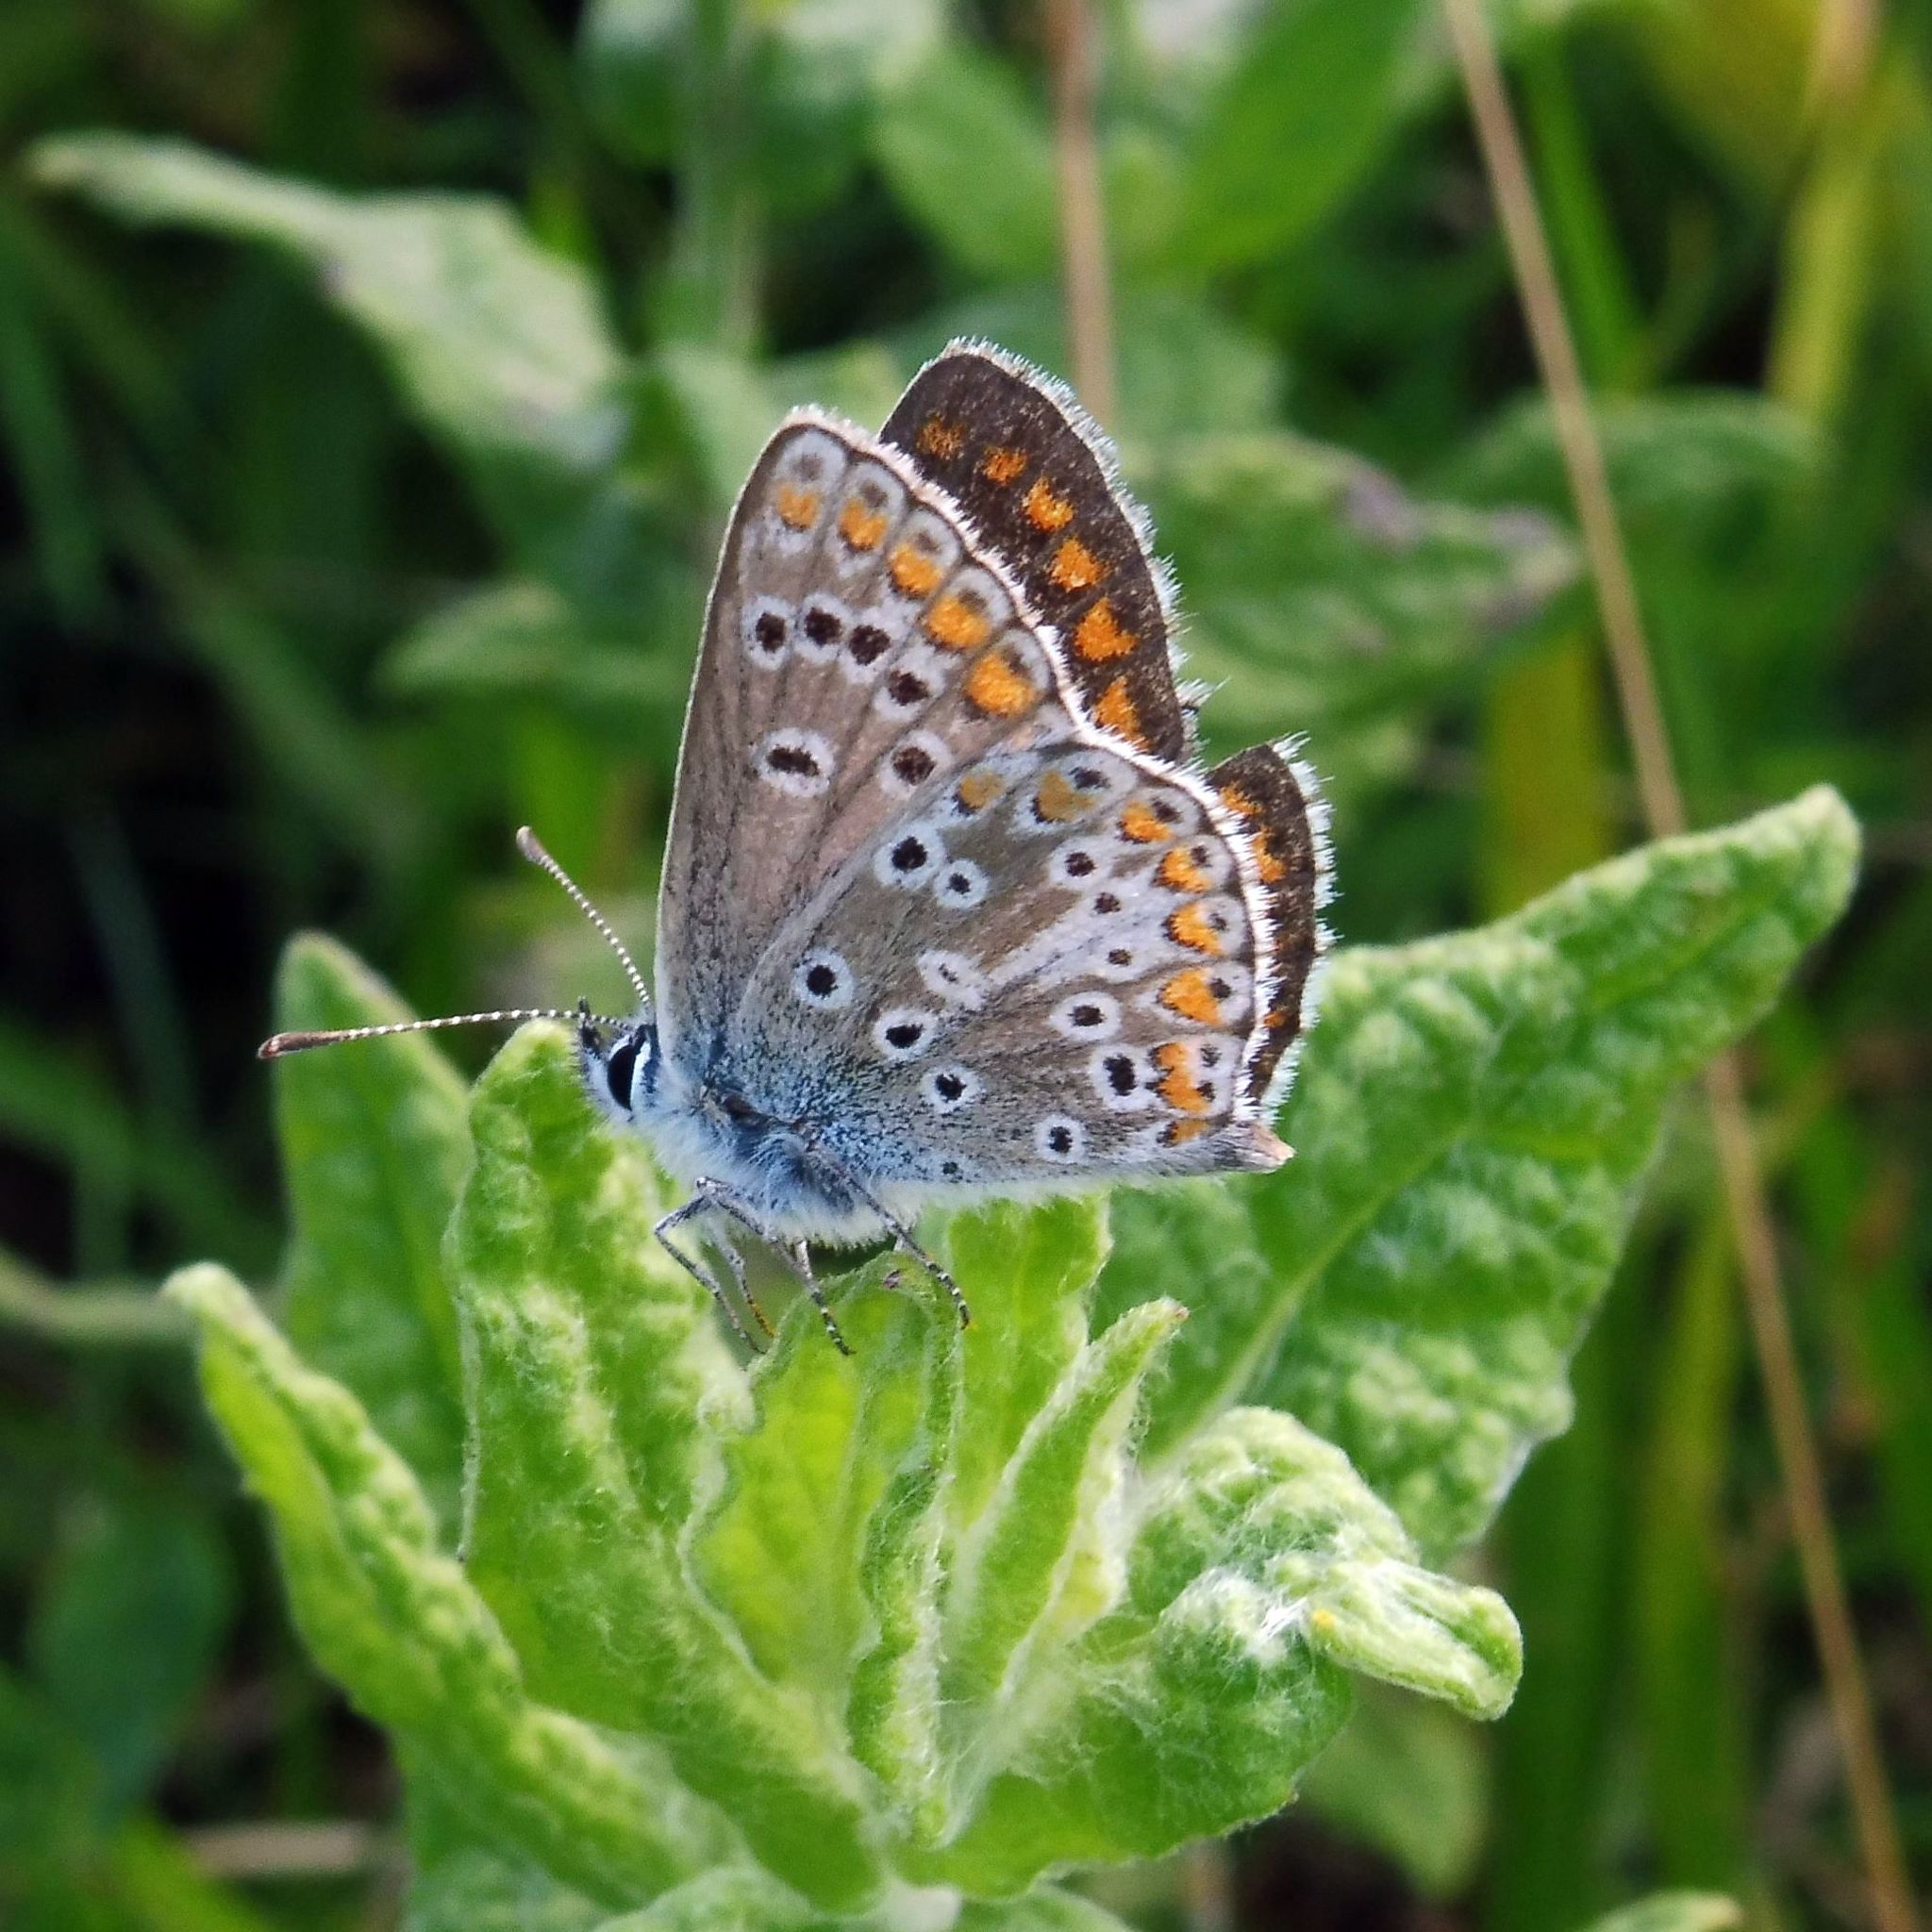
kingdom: Animalia
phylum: Arthropoda
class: Insecta
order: Lepidoptera
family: Lycaenidae
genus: Aricia
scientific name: Aricia agestis
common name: Brown argus
